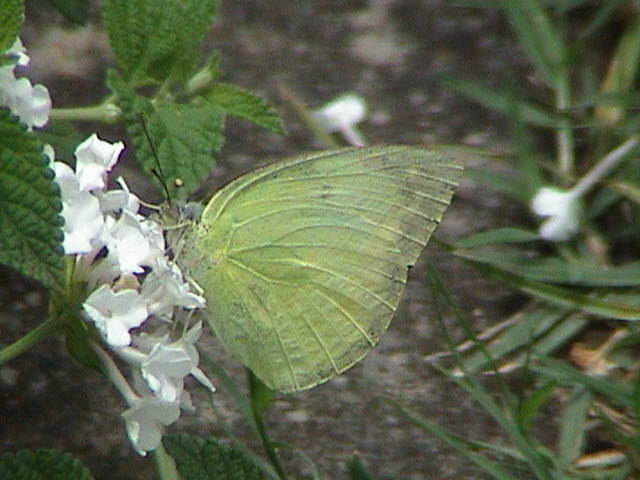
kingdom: Animalia
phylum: Arthropoda
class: Insecta
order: Lepidoptera
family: Pieridae
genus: Catopsilia
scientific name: Catopsilia pomona
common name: Common emigrant
